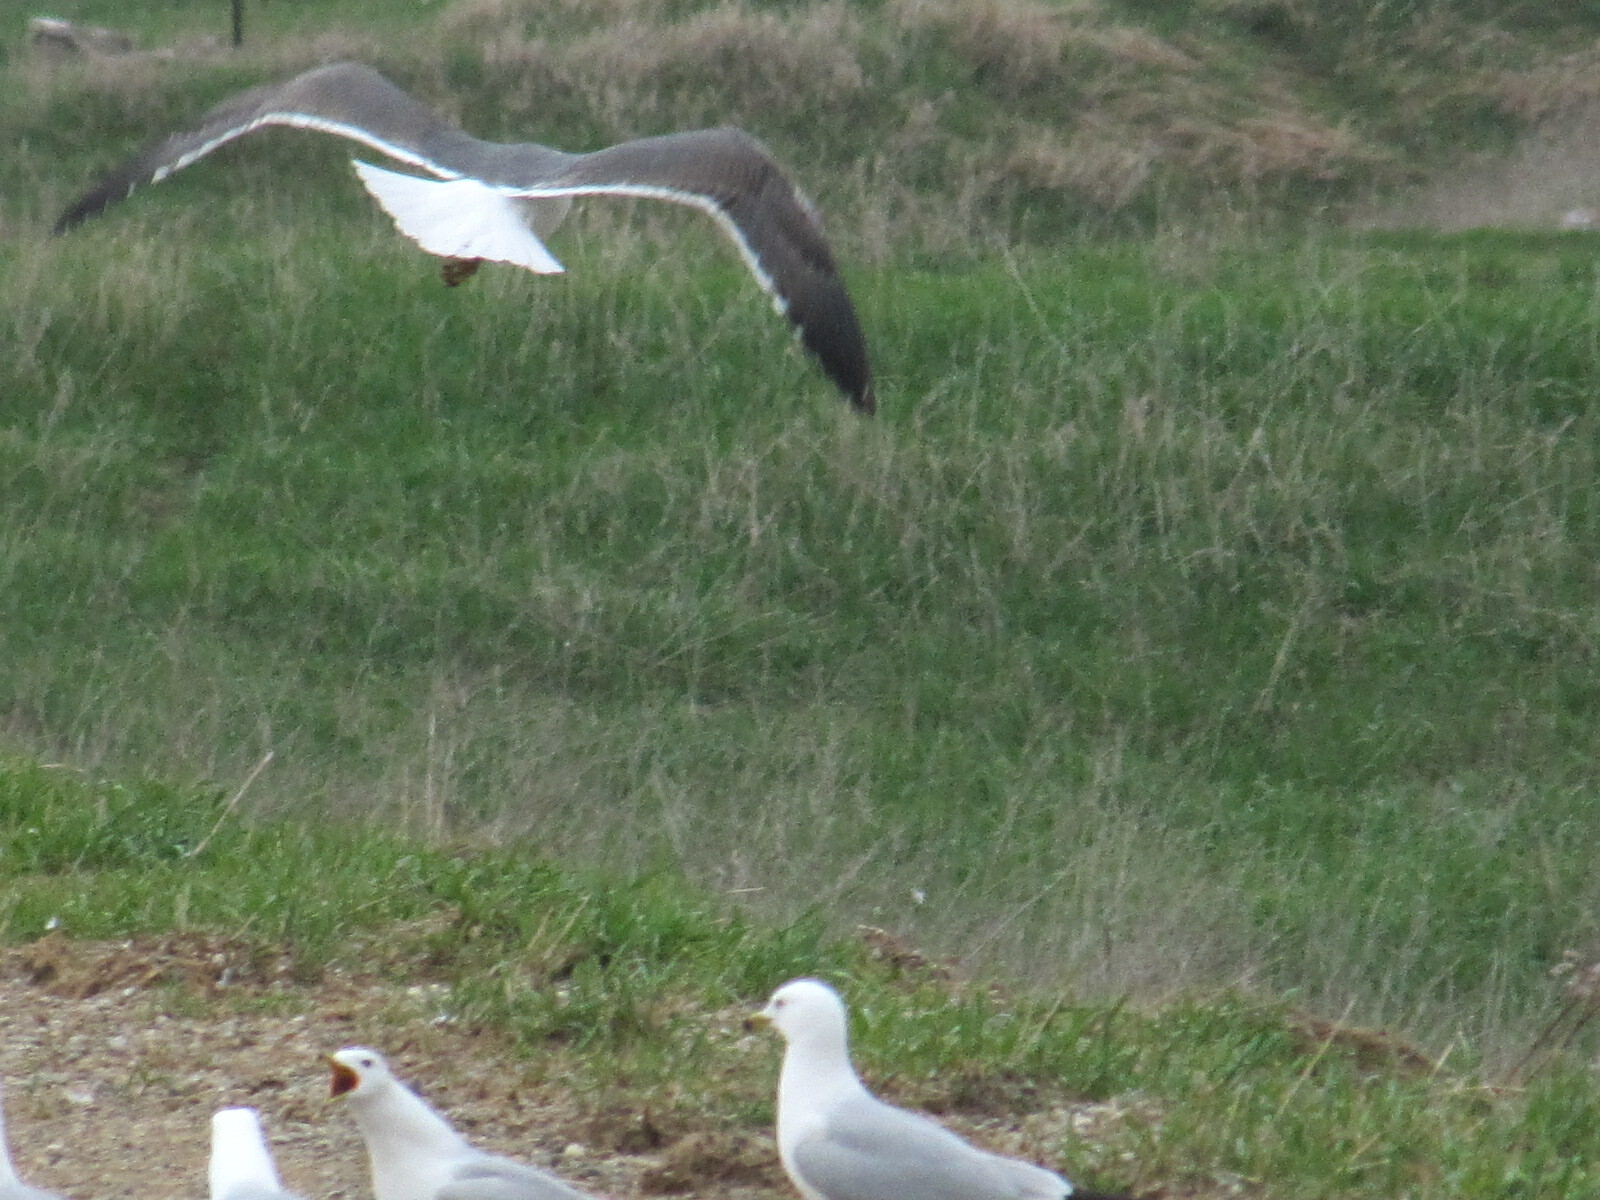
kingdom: Animalia
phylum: Chordata
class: Aves
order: Charadriiformes
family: Laridae
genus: Larus
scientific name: Larus marinus
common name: Great black-backed gull
